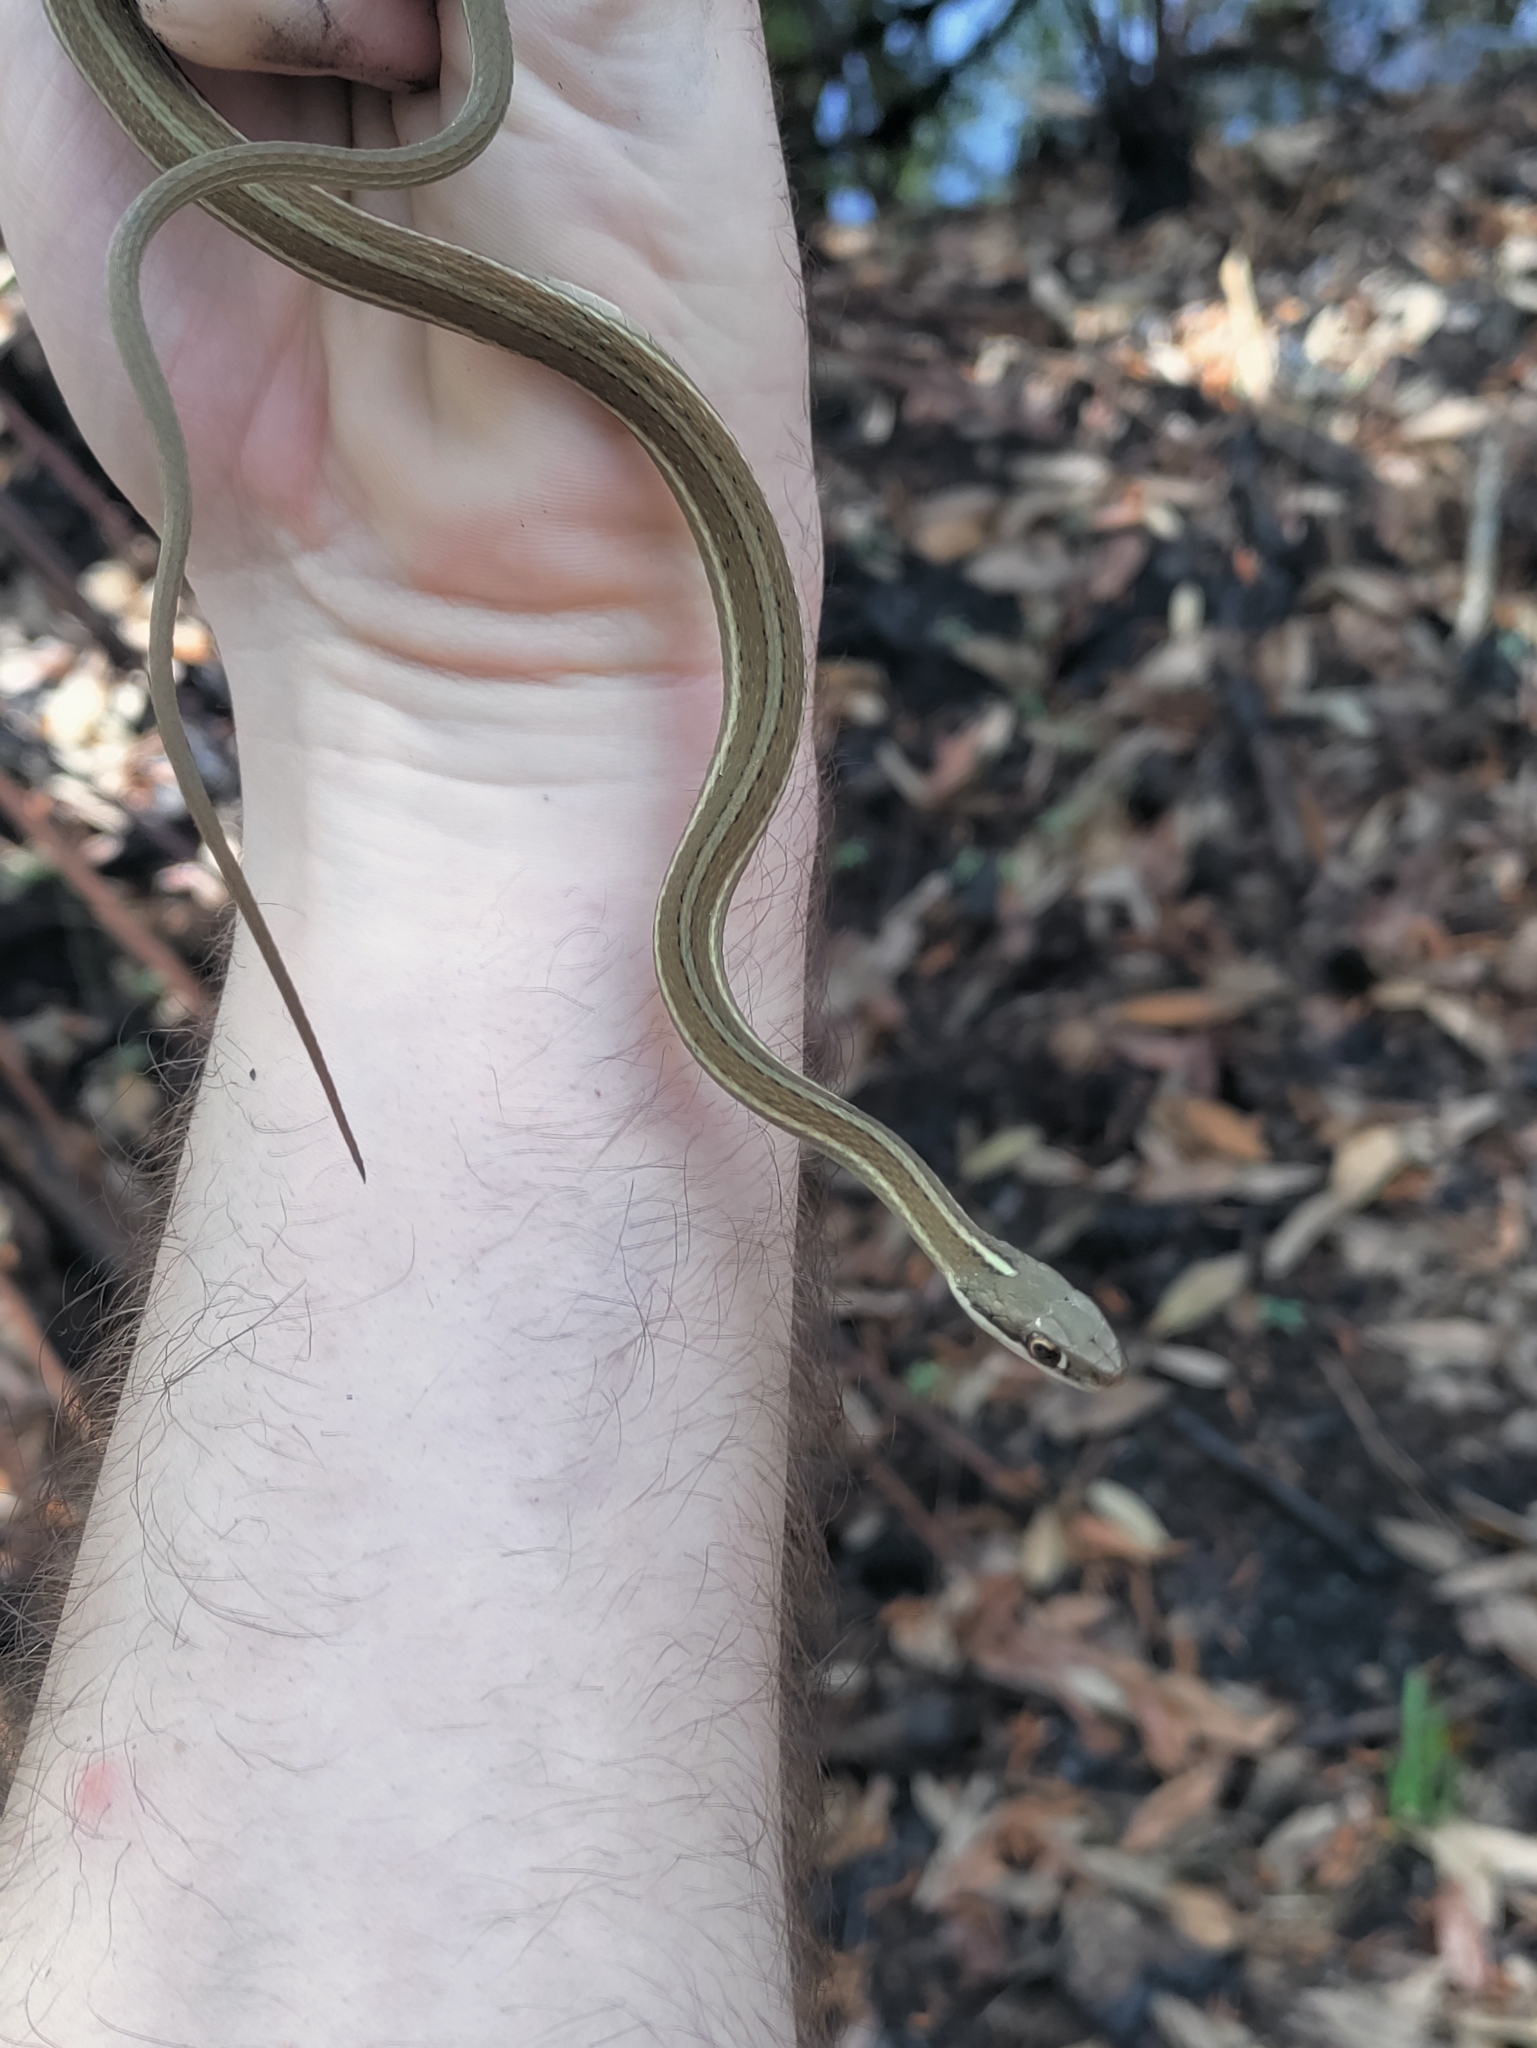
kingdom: Animalia
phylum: Chordata
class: Squamata
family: Colubridae
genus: Thamnophis
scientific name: Thamnophis saurita
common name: Eastern ribbonsnake
